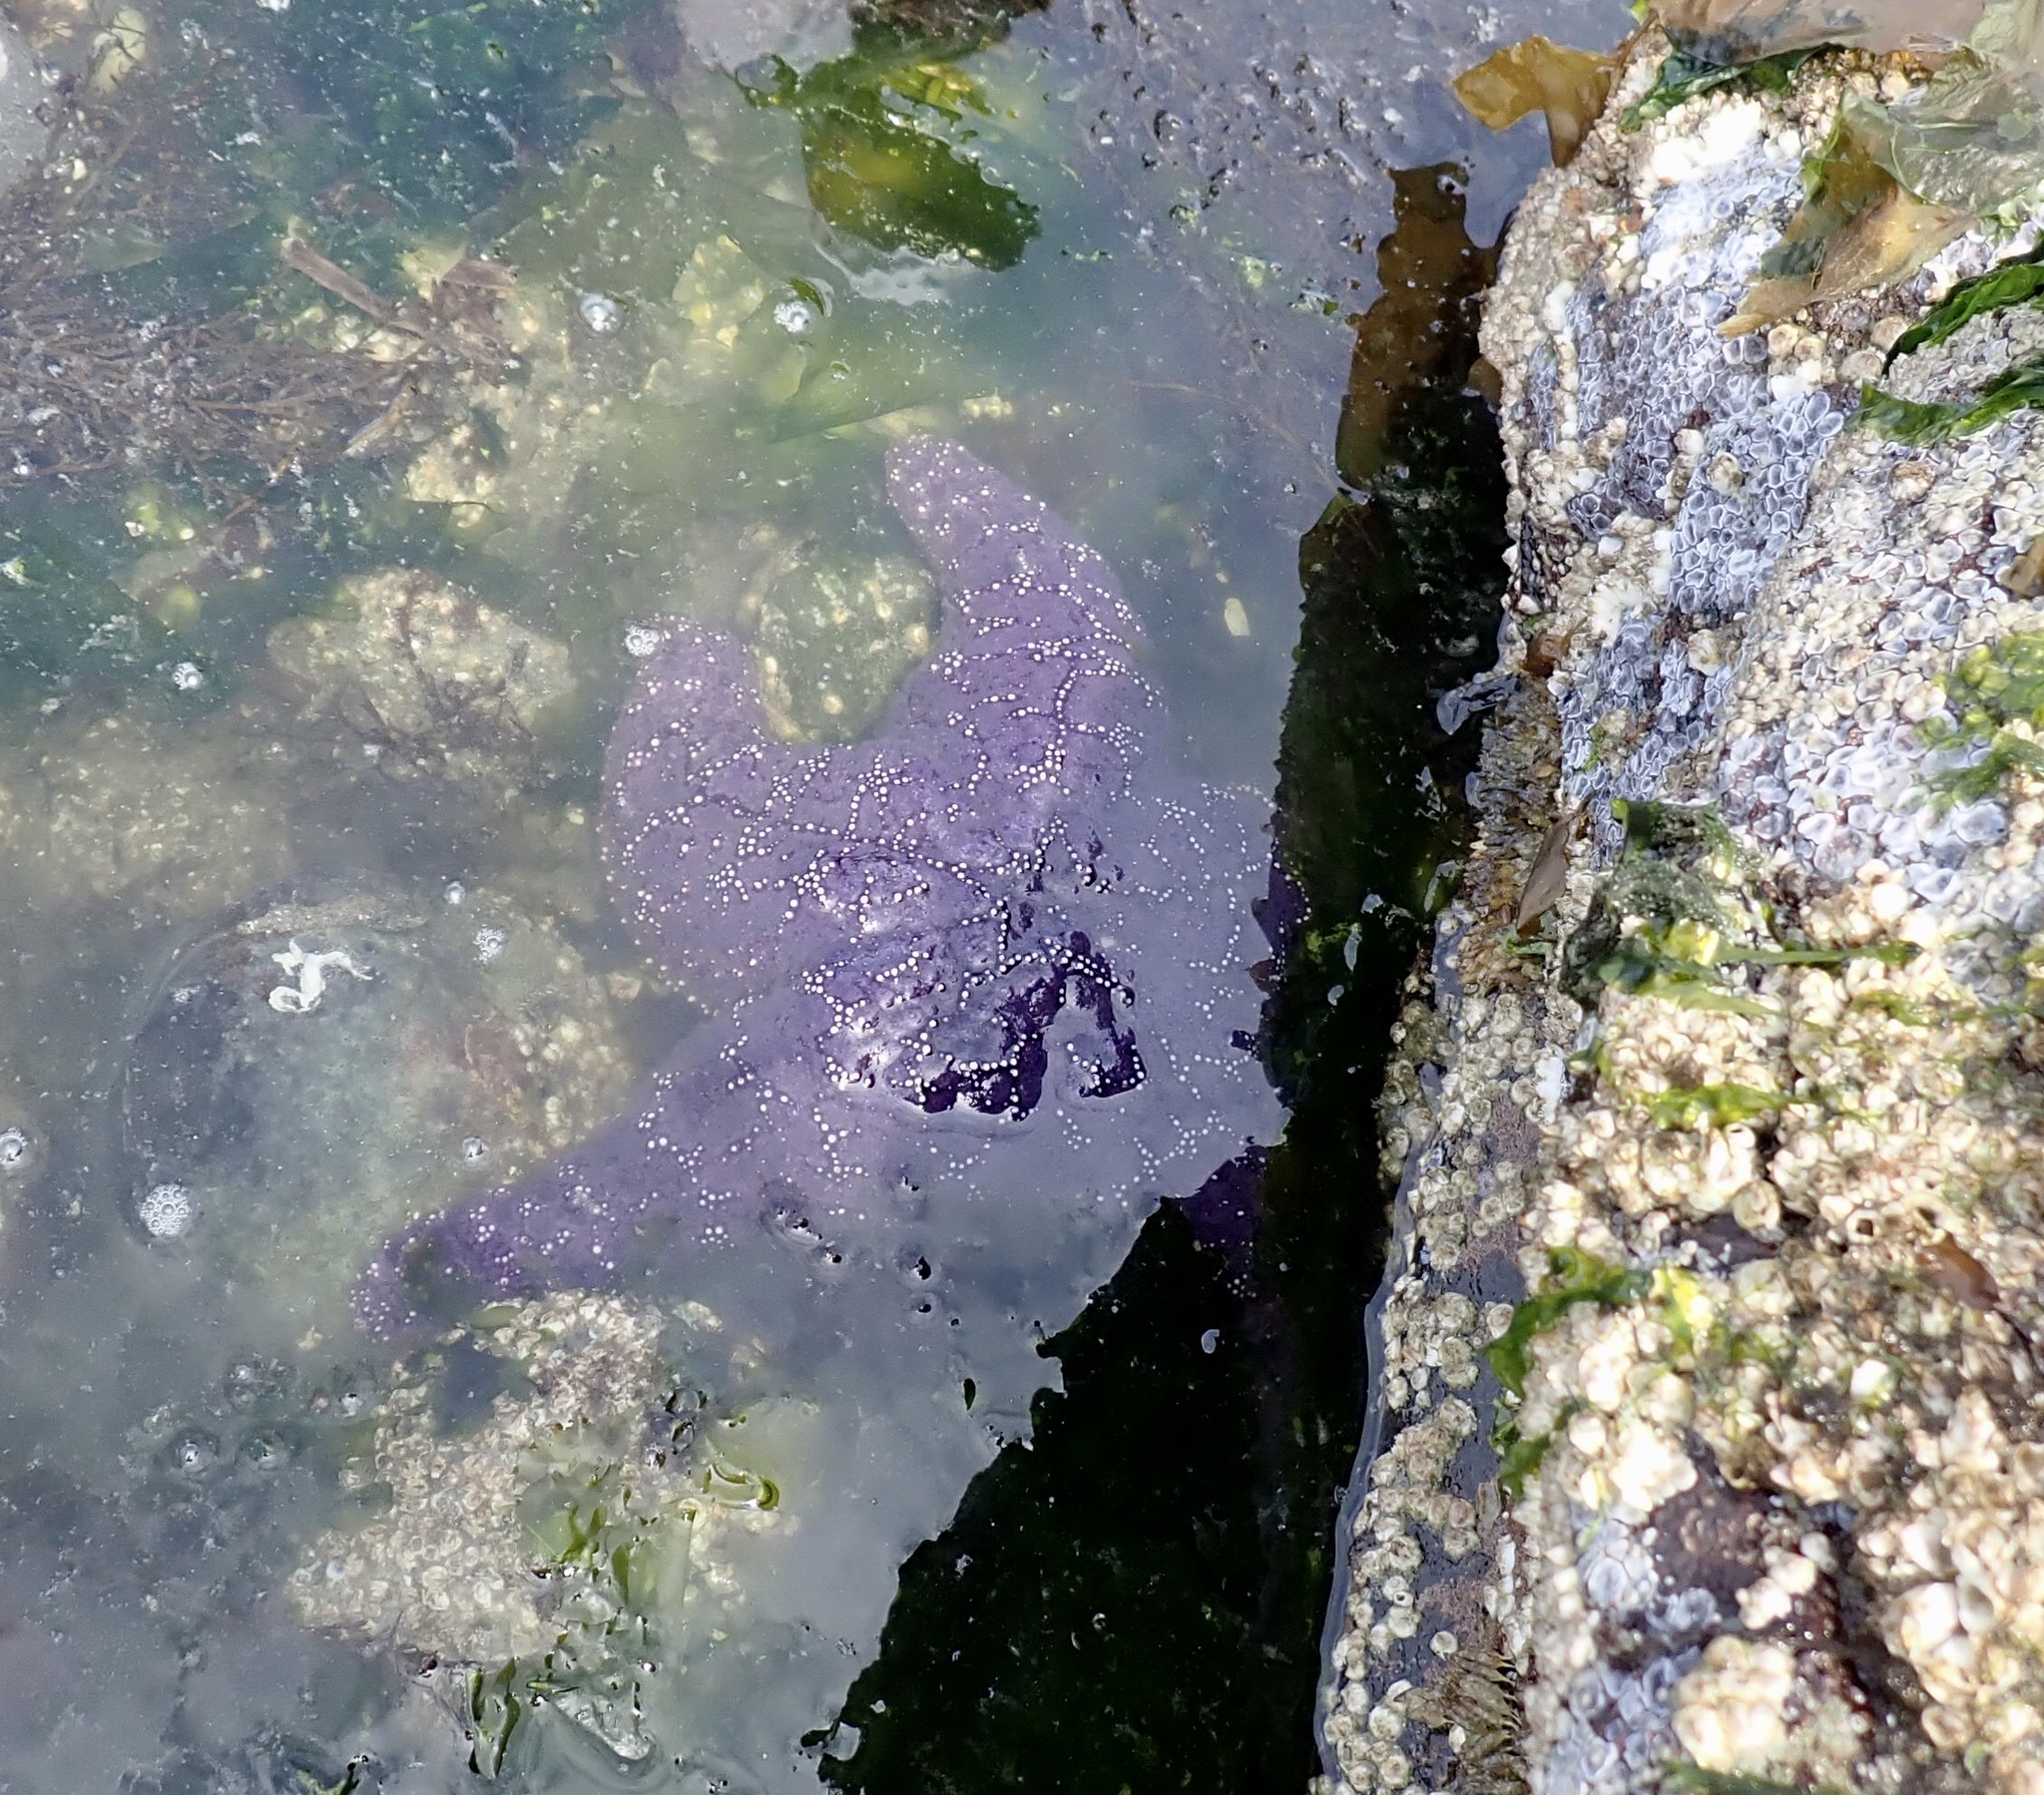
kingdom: Animalia
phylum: Echinodermata
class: Asteroidea
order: Forcipulatida
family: Asteriidae
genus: Pisaster
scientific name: Pisaster ochraceus
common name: Ochre stars
